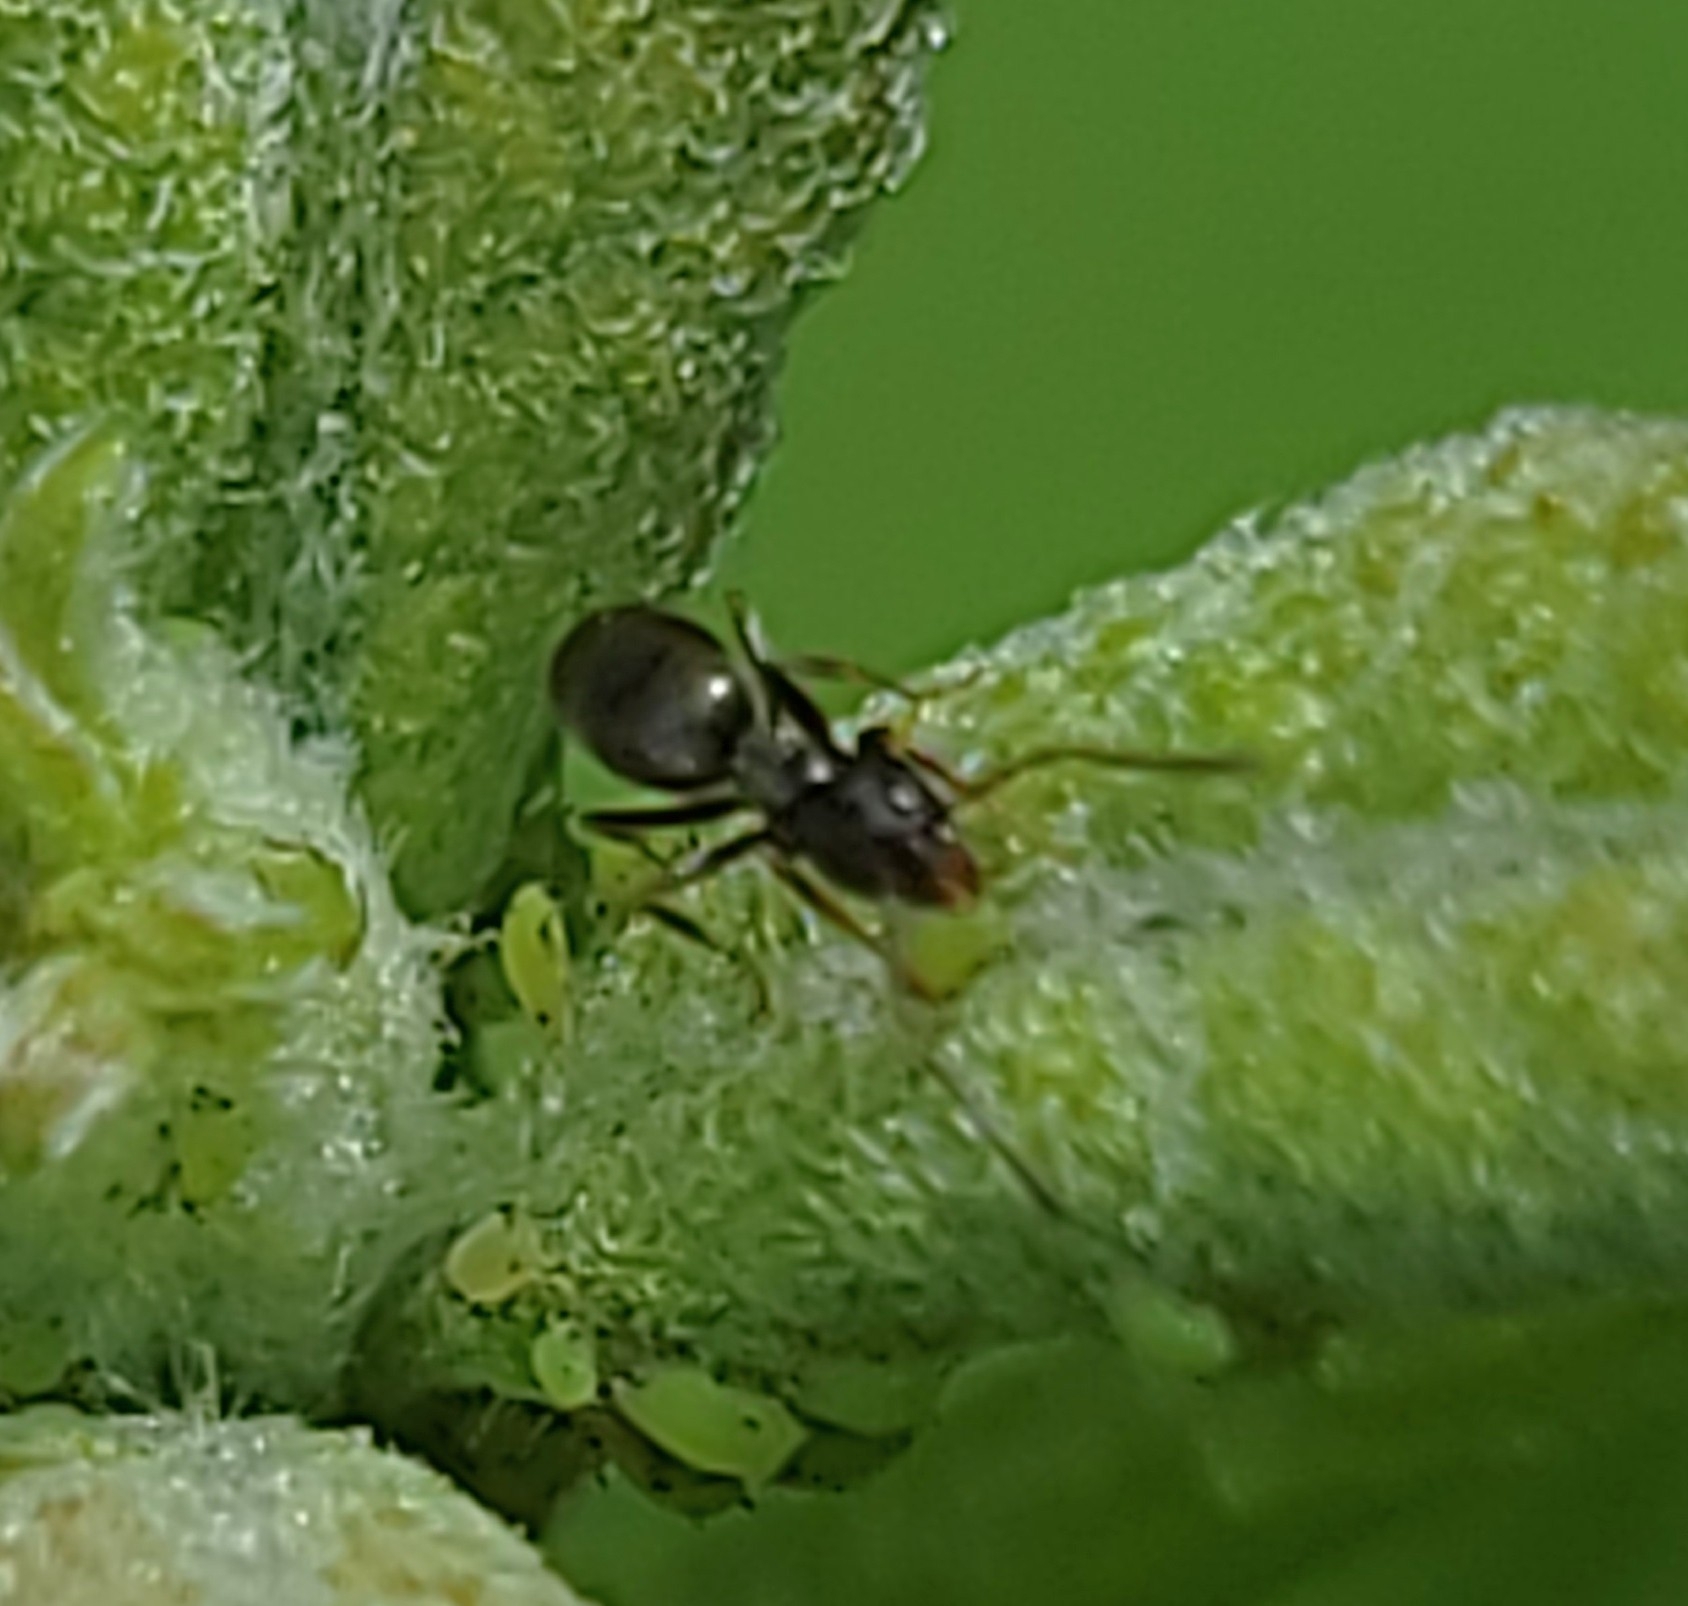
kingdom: Animalia
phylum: Arthropoda
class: Insecta
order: Hymenoptera
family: Formicidae
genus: Tapinoma
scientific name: Tapinoma sessile
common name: Odorous house ant
